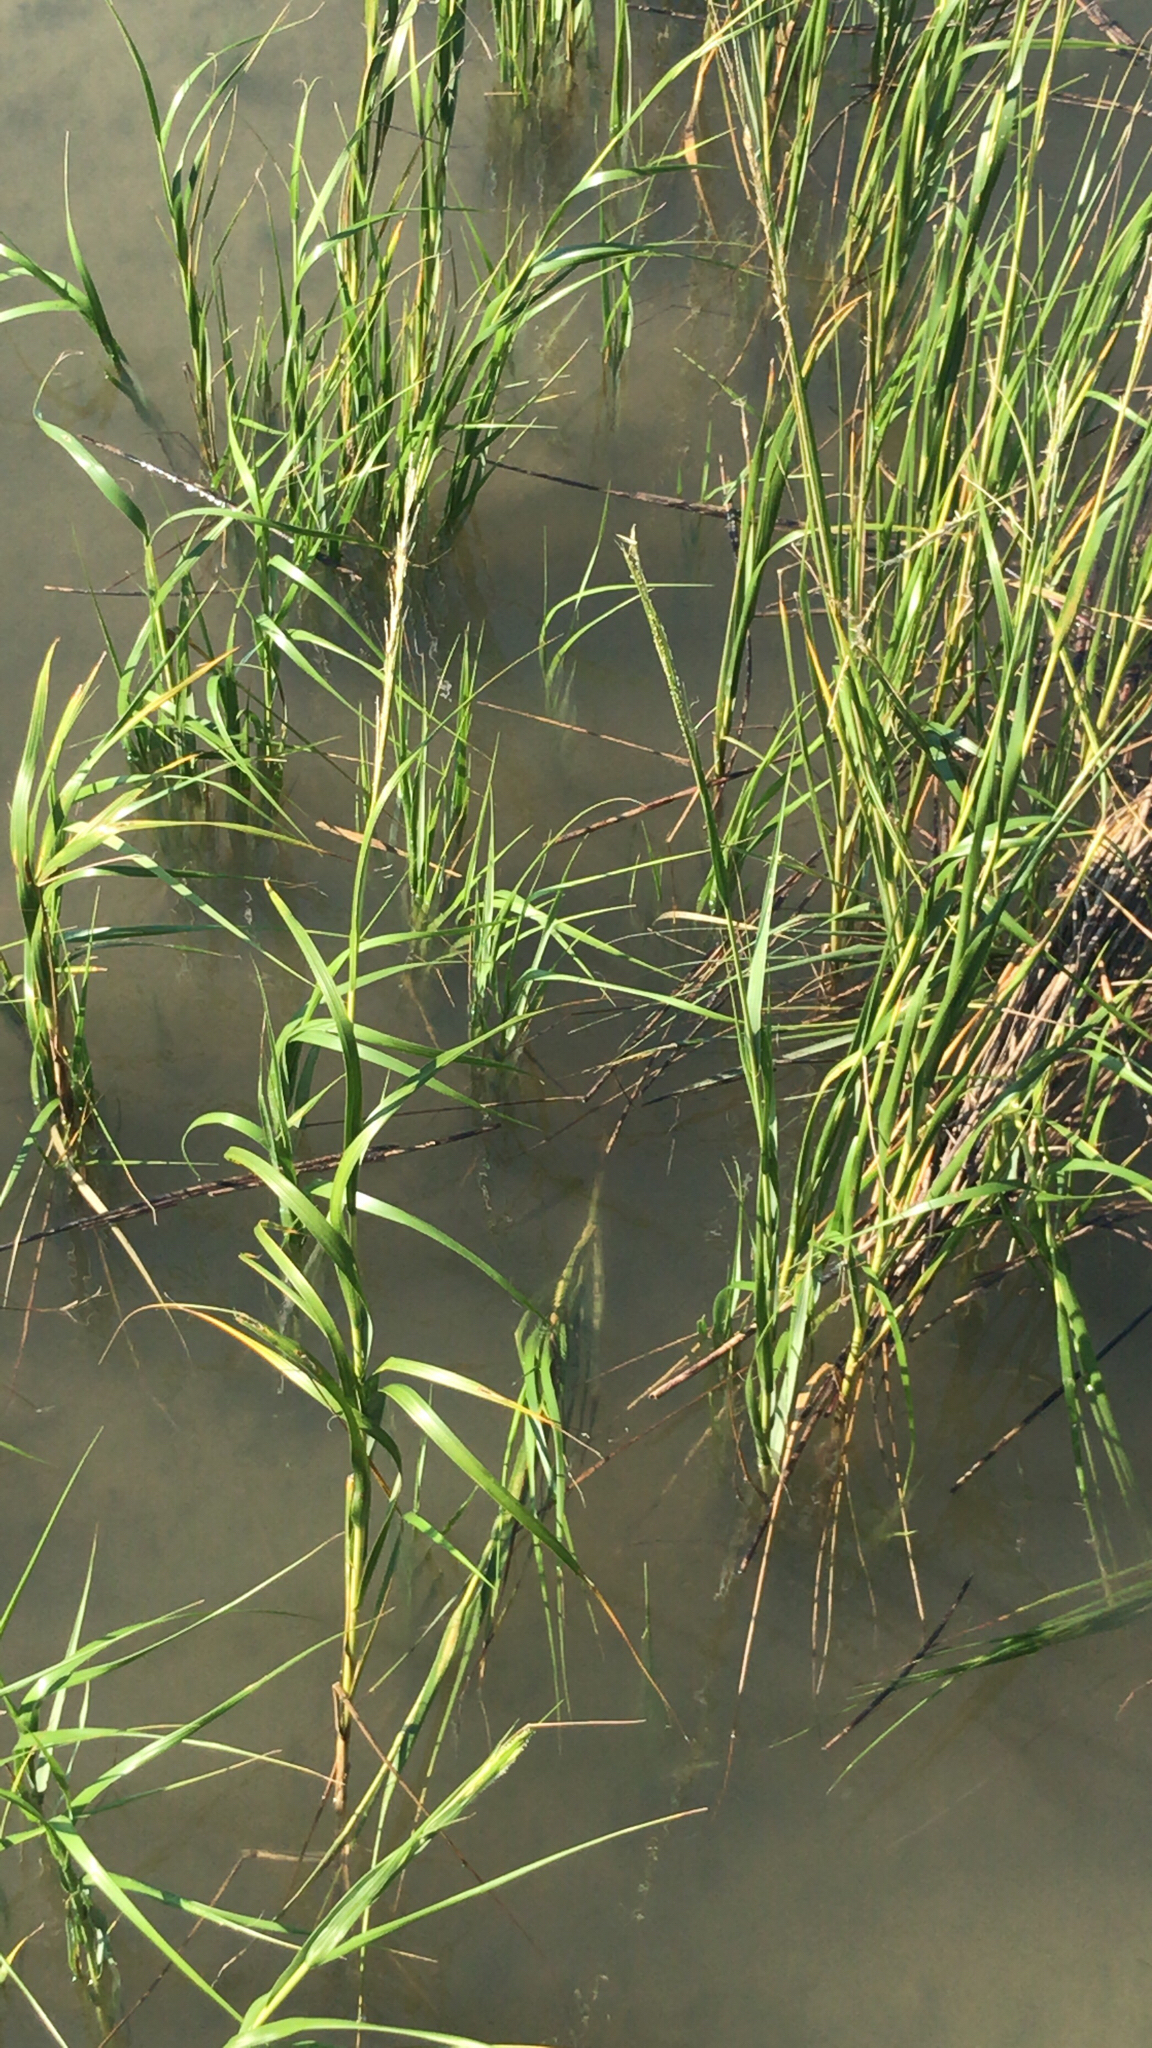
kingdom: Plantae
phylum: Tracheophyta
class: Liliopsida
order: Poales
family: Poaceae
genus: Sporobolus
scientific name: Sporobolus alterniflorus
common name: Atlantic cordgrass
